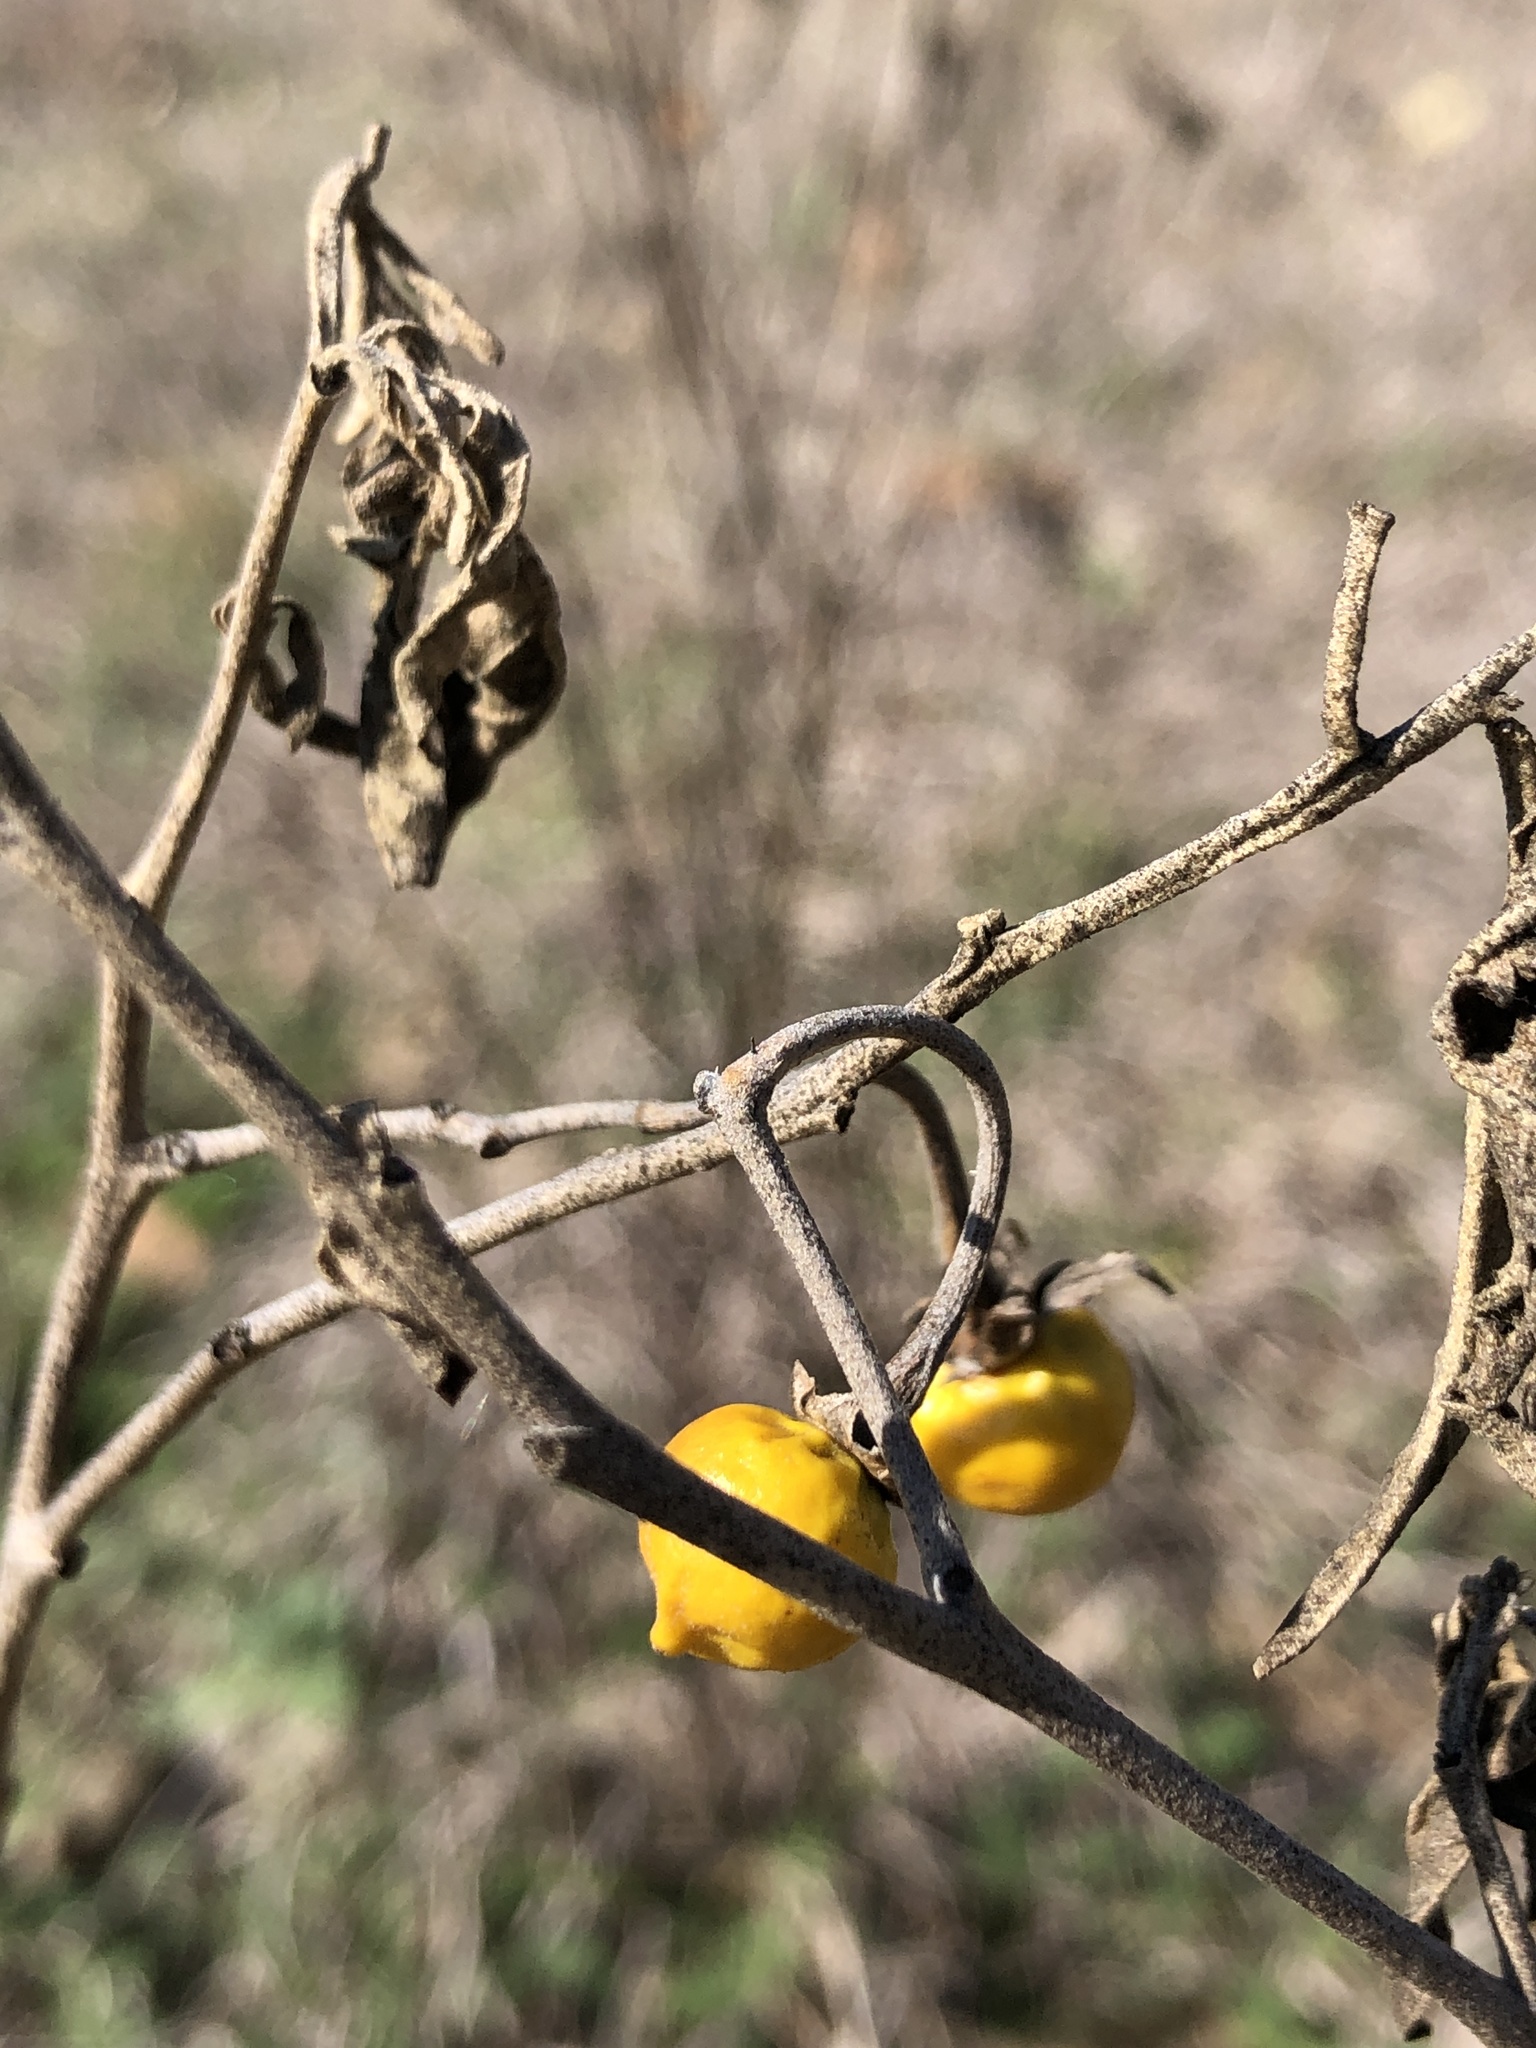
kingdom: Plantae
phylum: Tracheophyta
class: Magnoliopsida
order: Solanales
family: Solanaceae
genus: Solanum
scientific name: Solanum elaeagnifolium
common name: Silverleaf nightshade
